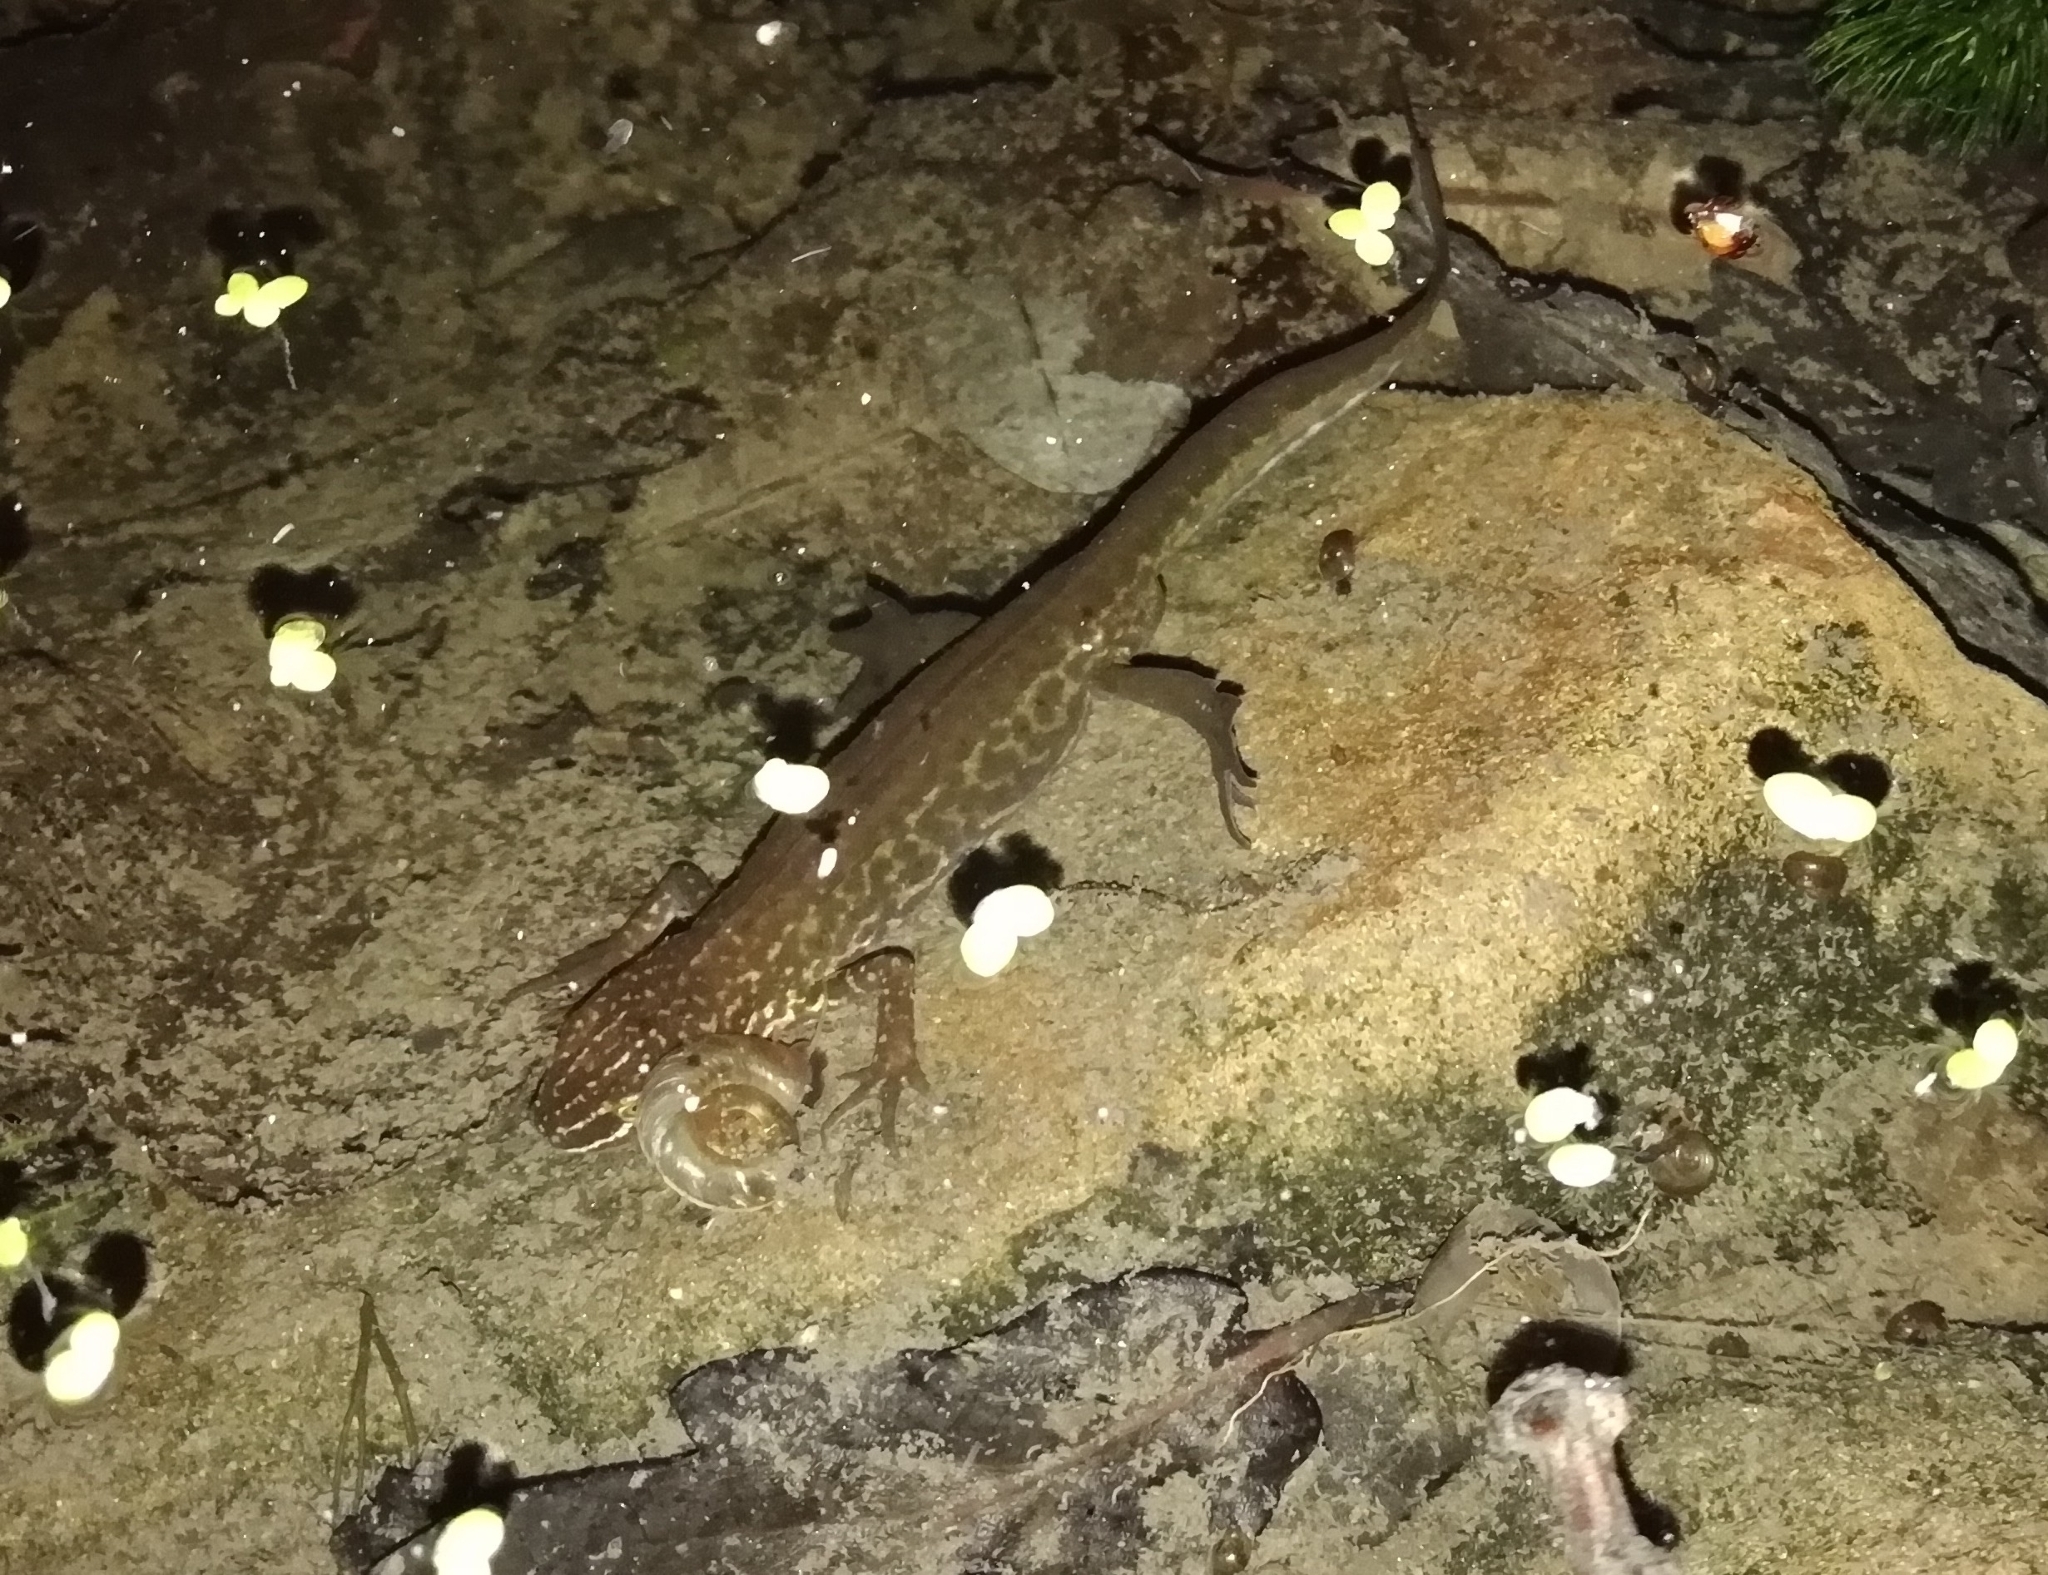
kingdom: Animalia
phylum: Chordata
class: Amphibia
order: Caudata
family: Salamandridae
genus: Lissotriton
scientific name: Lissotriton helveticus
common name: Palmate newt
